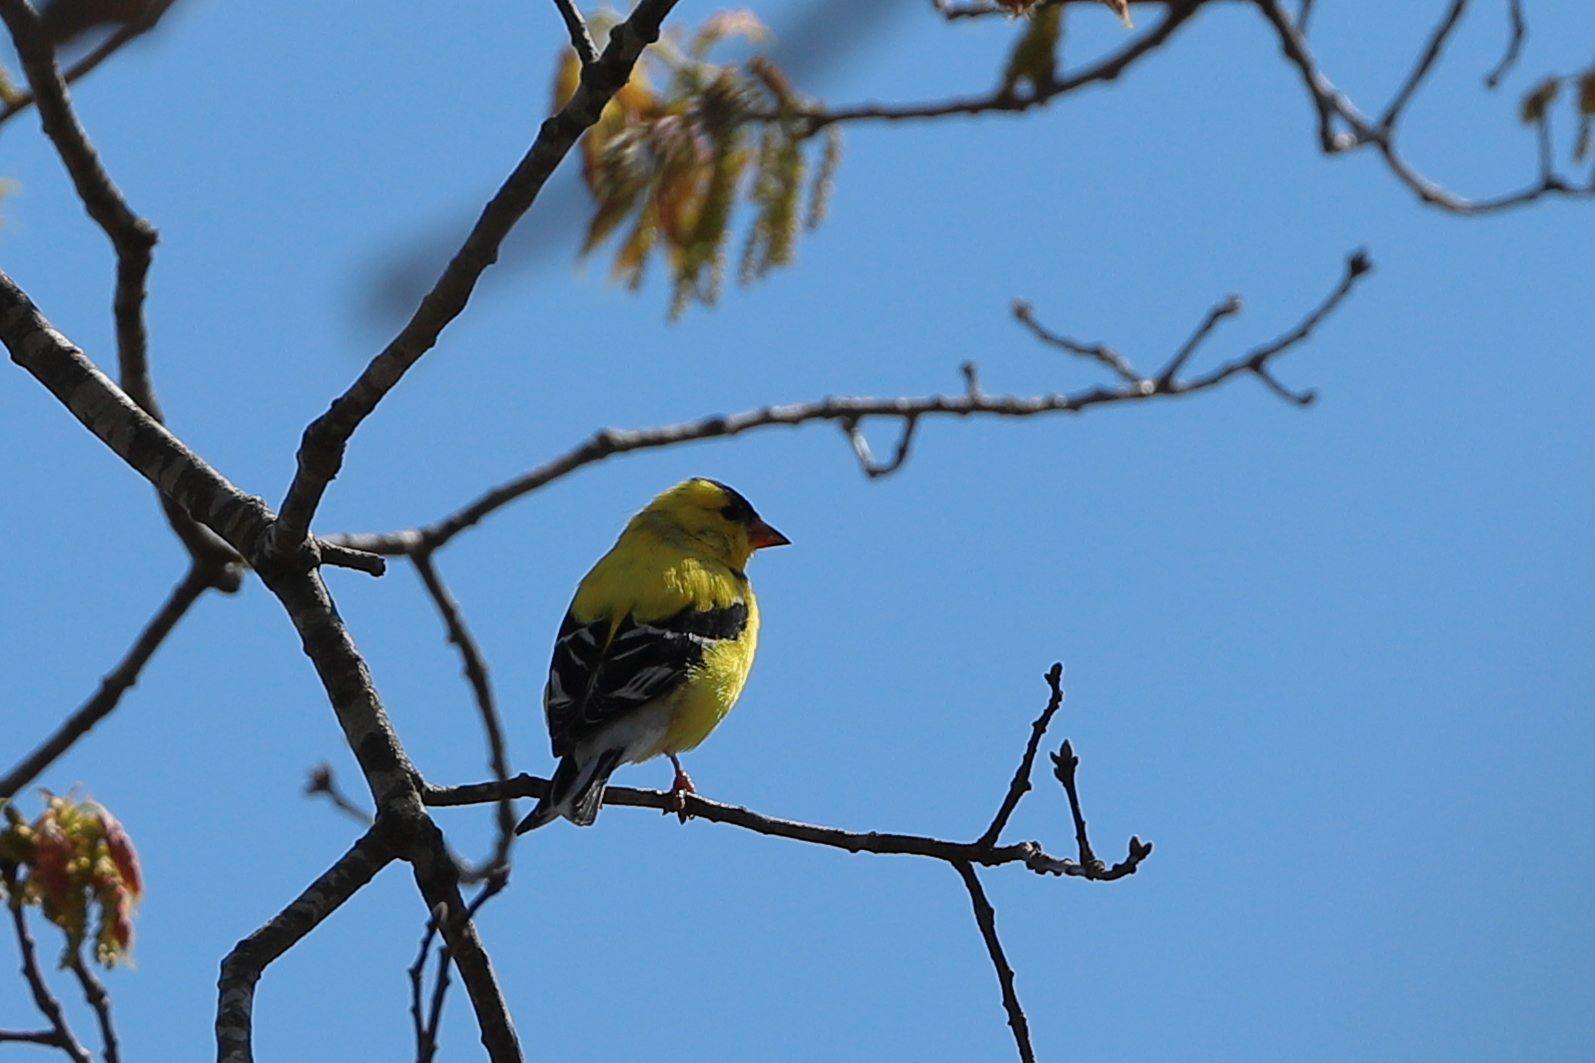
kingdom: Animalia
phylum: Chordata
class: Aves
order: Passeriformes
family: Fringillidae
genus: Spinus
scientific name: Spinus tristis
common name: American goldfinch
